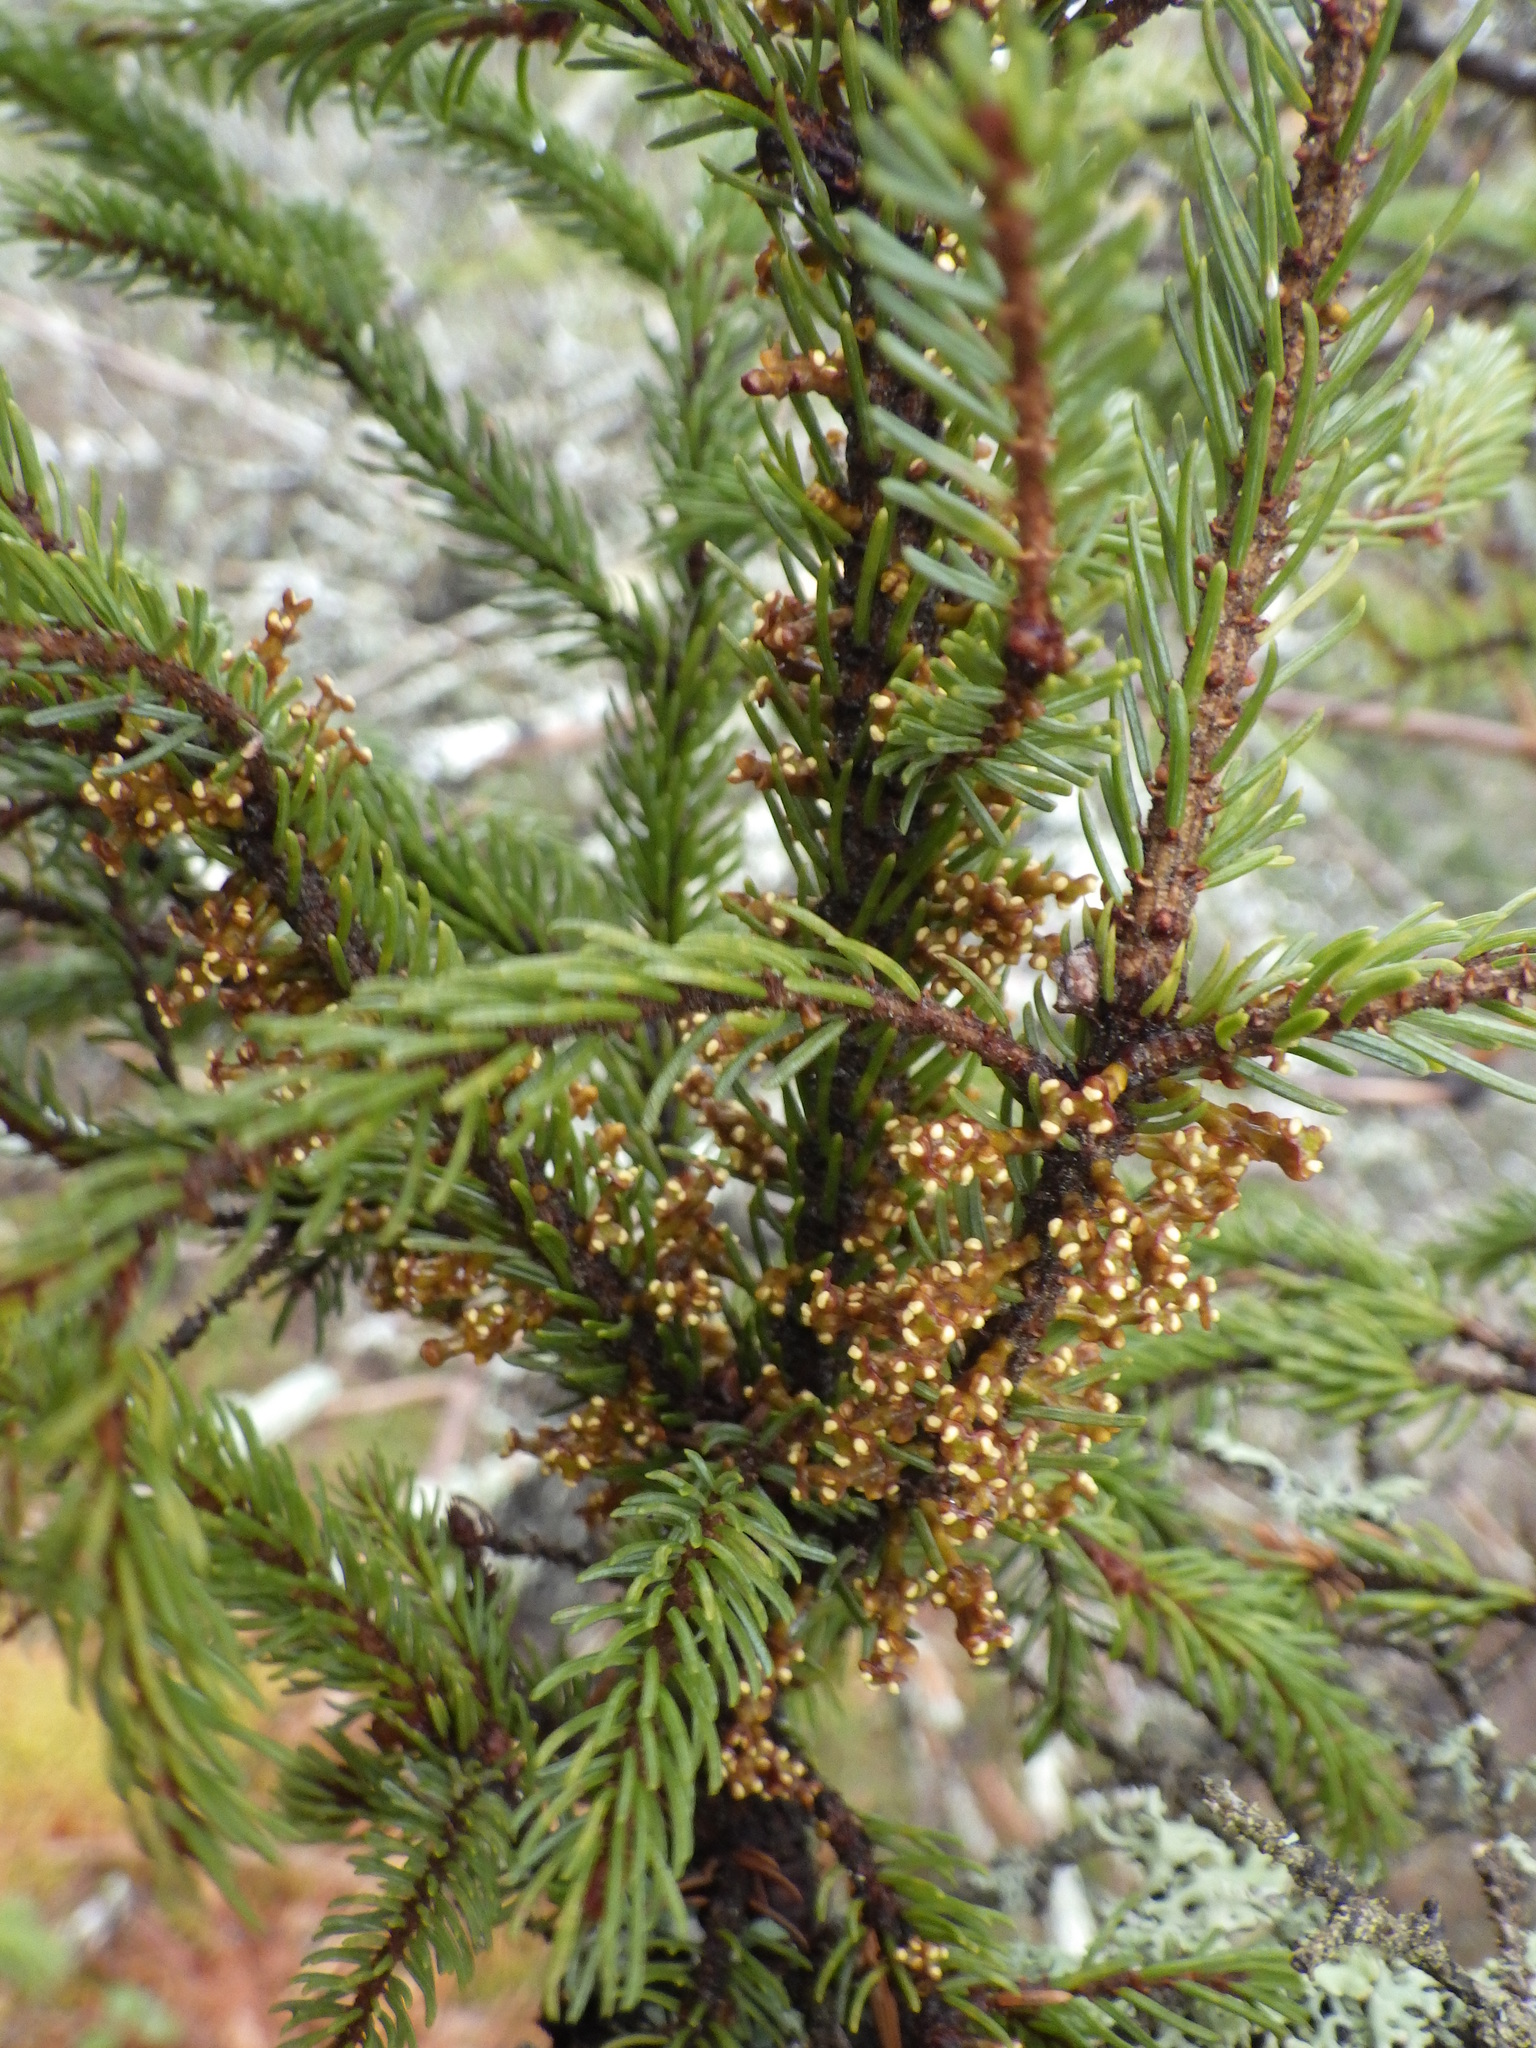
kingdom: Plantae
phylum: Tracheophyta
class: Magnoliopsida
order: Santalales
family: Viscaceae
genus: Arceuthobium
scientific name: Arceuthobium pusillum
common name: Dwarf-mistletoe
